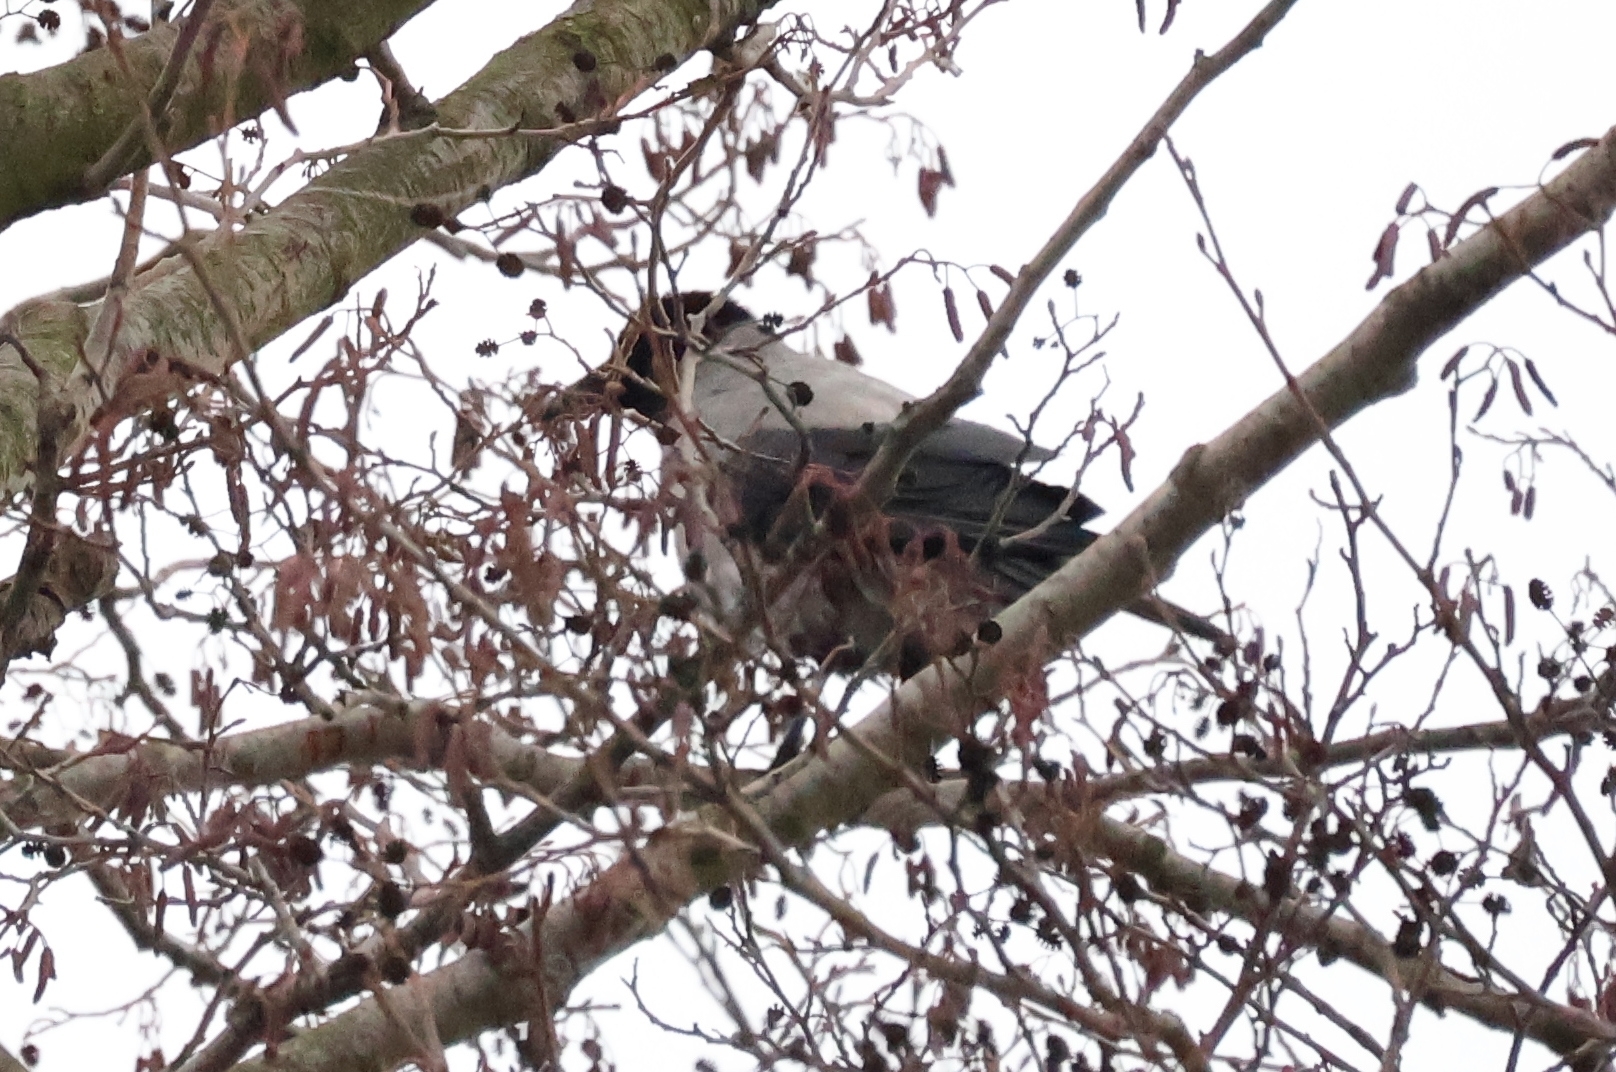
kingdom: Animalia
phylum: Chordata
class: Aves
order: Passeriformes
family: Corvidae
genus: Corvus
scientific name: Corvus cornix
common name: Hooded crow
